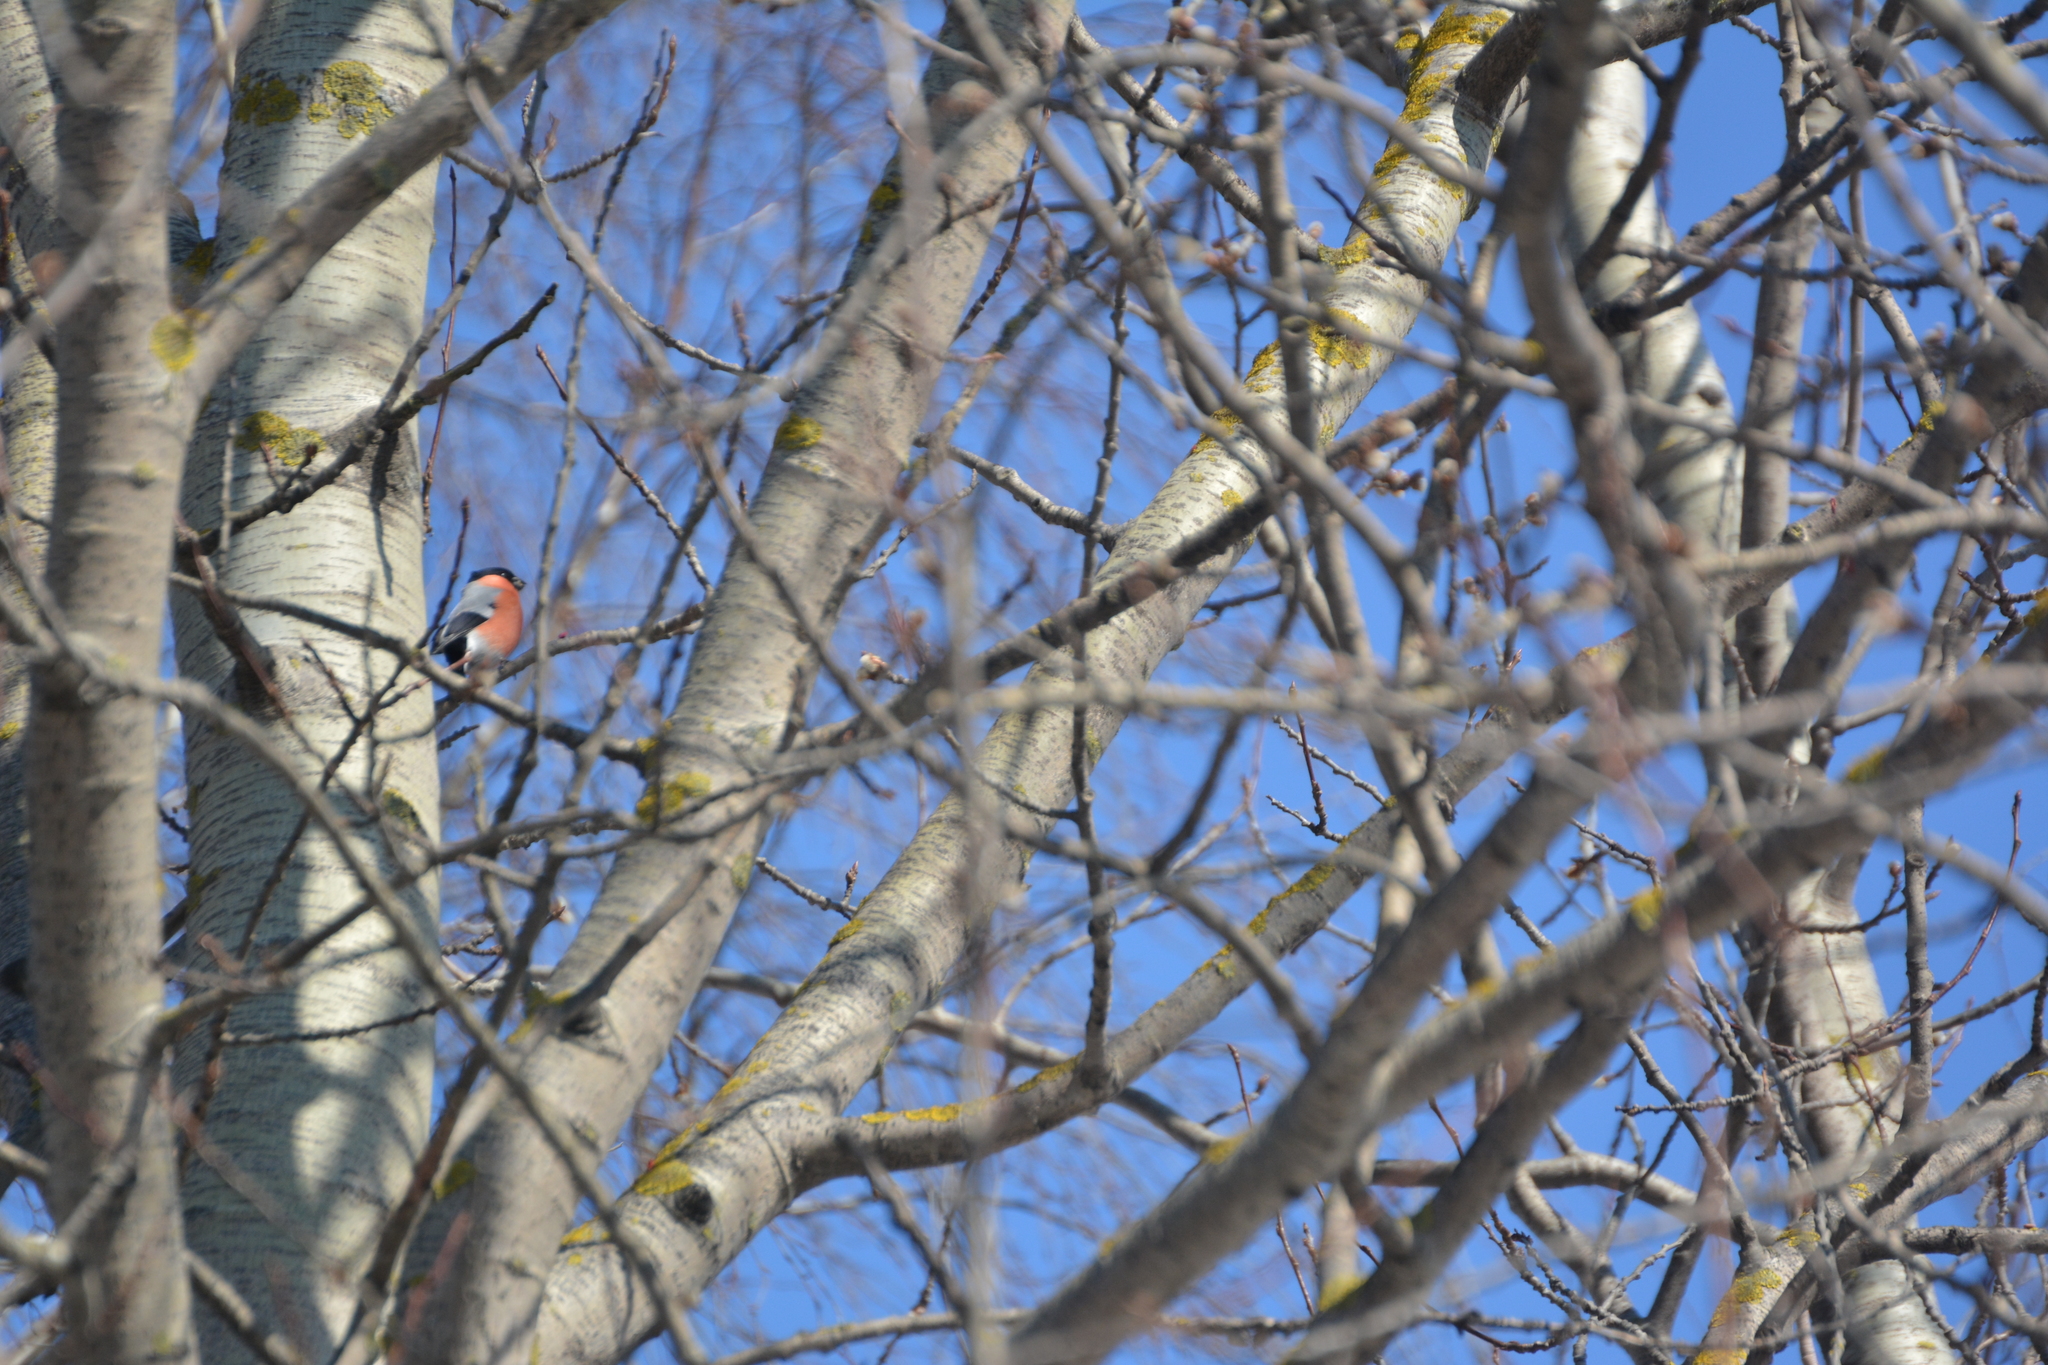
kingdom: Animalia
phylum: Chordata
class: Aves
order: Passeriformes
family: Fringillidae
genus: Pyrrhula
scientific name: Pyrrhula pyrrhula
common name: Eurasian bullfinch
